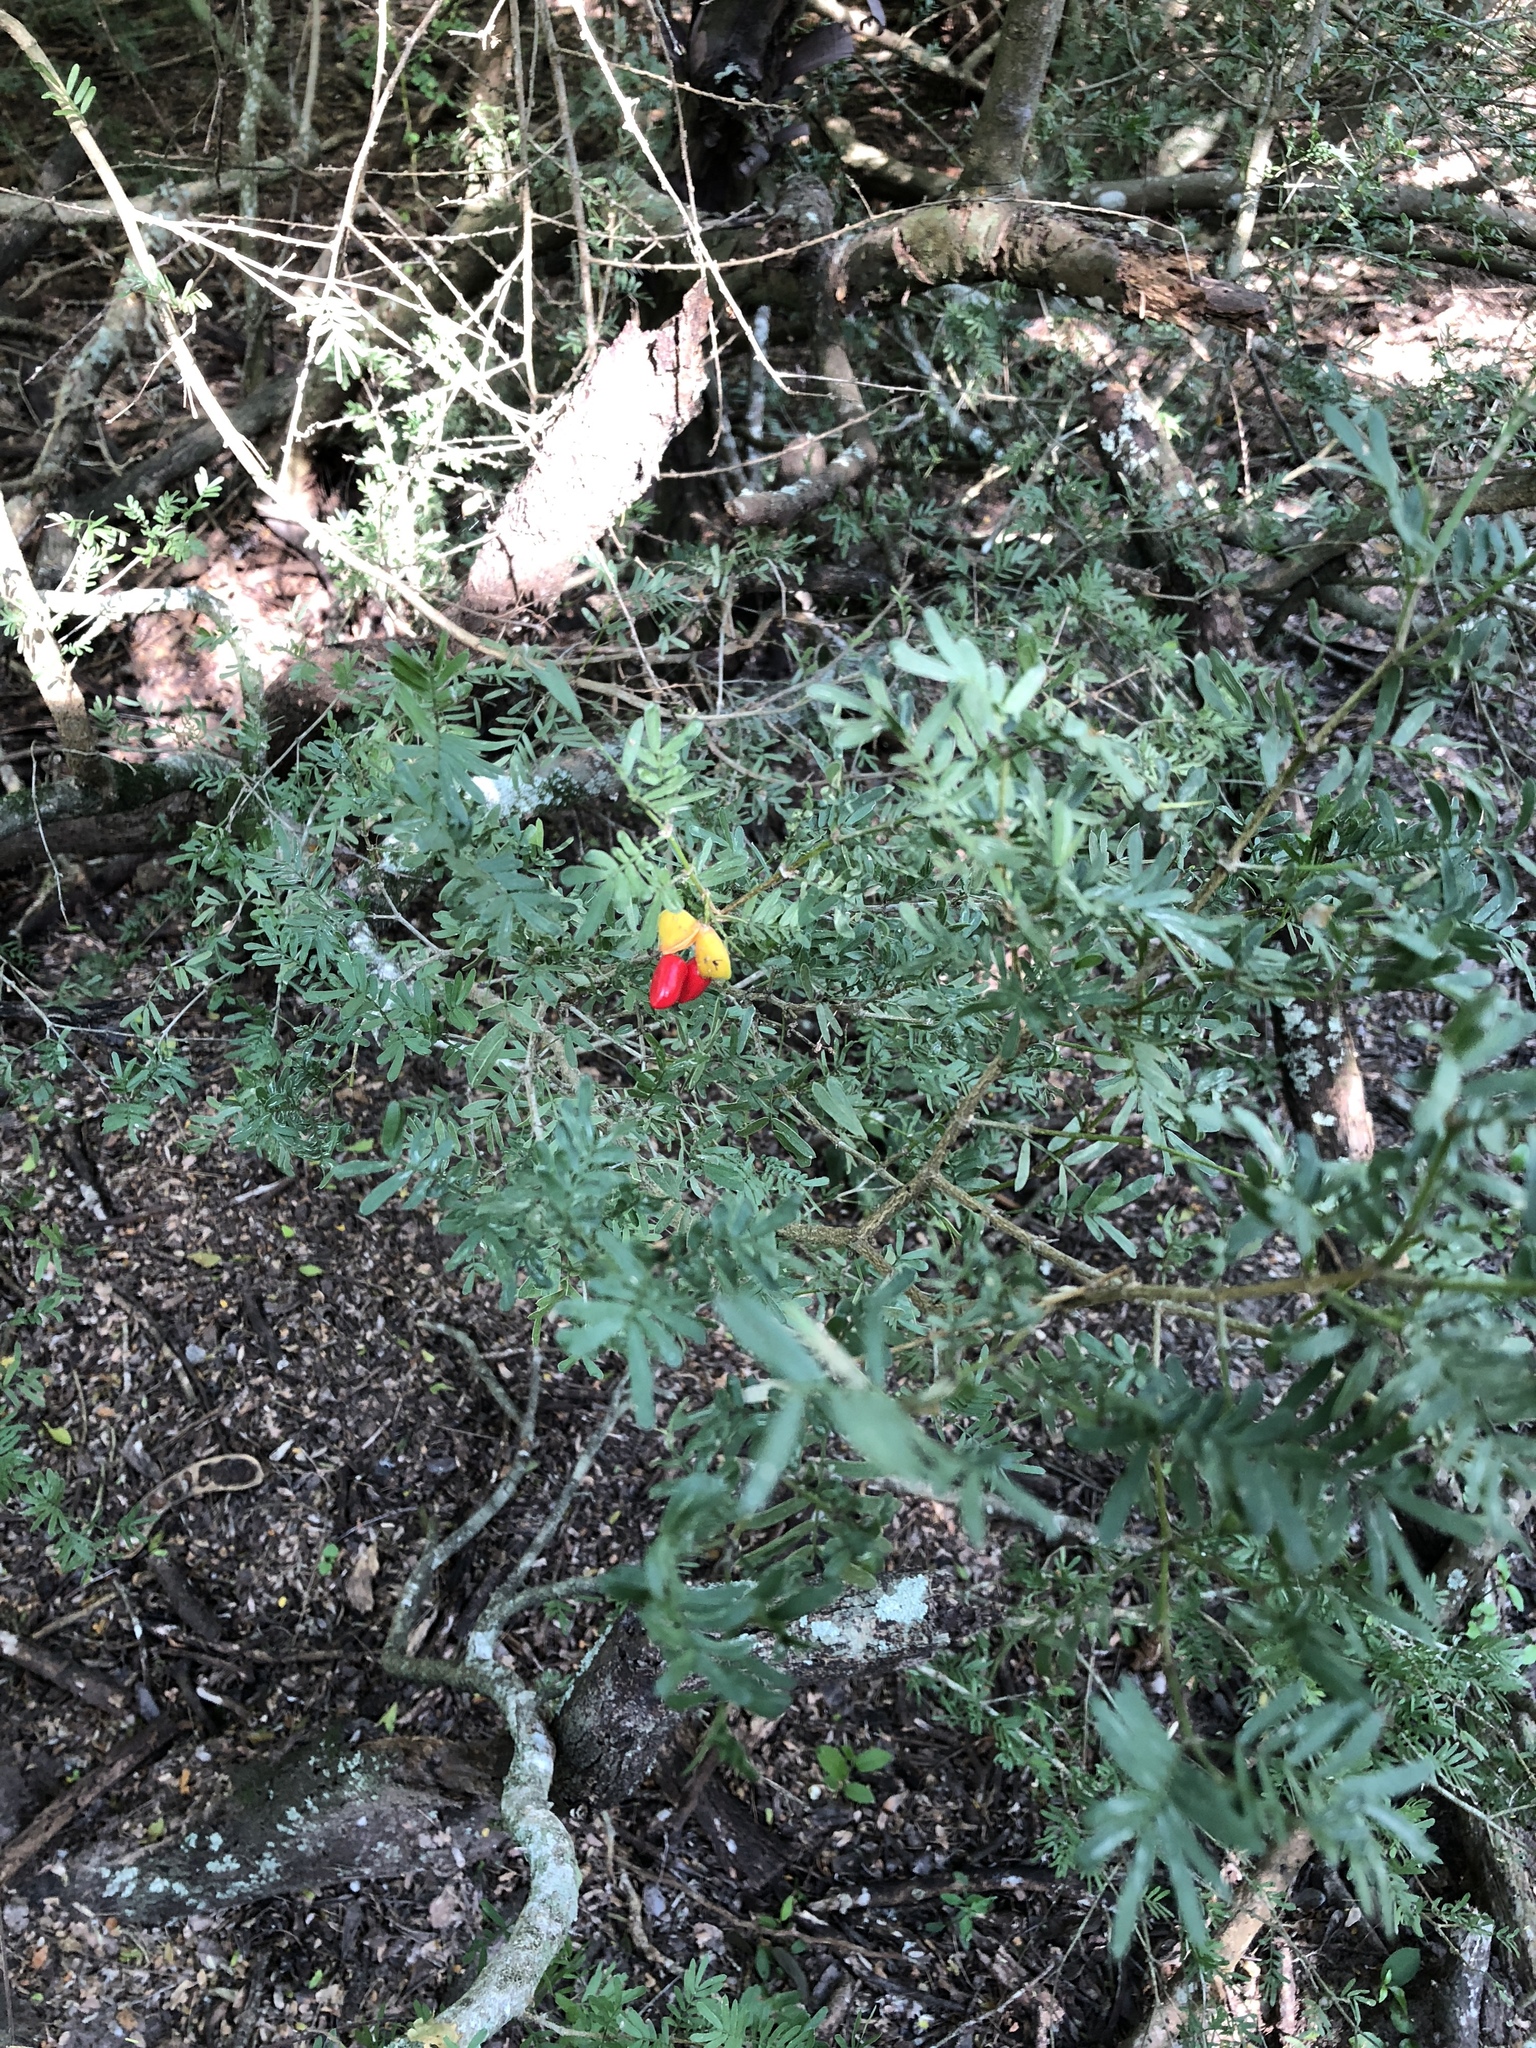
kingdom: Plantae
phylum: Tracheophyta
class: Magnoliopsida
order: Zygophyllales
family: Zygophyllaceae
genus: Porlieria
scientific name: Porlieria angustifolia
